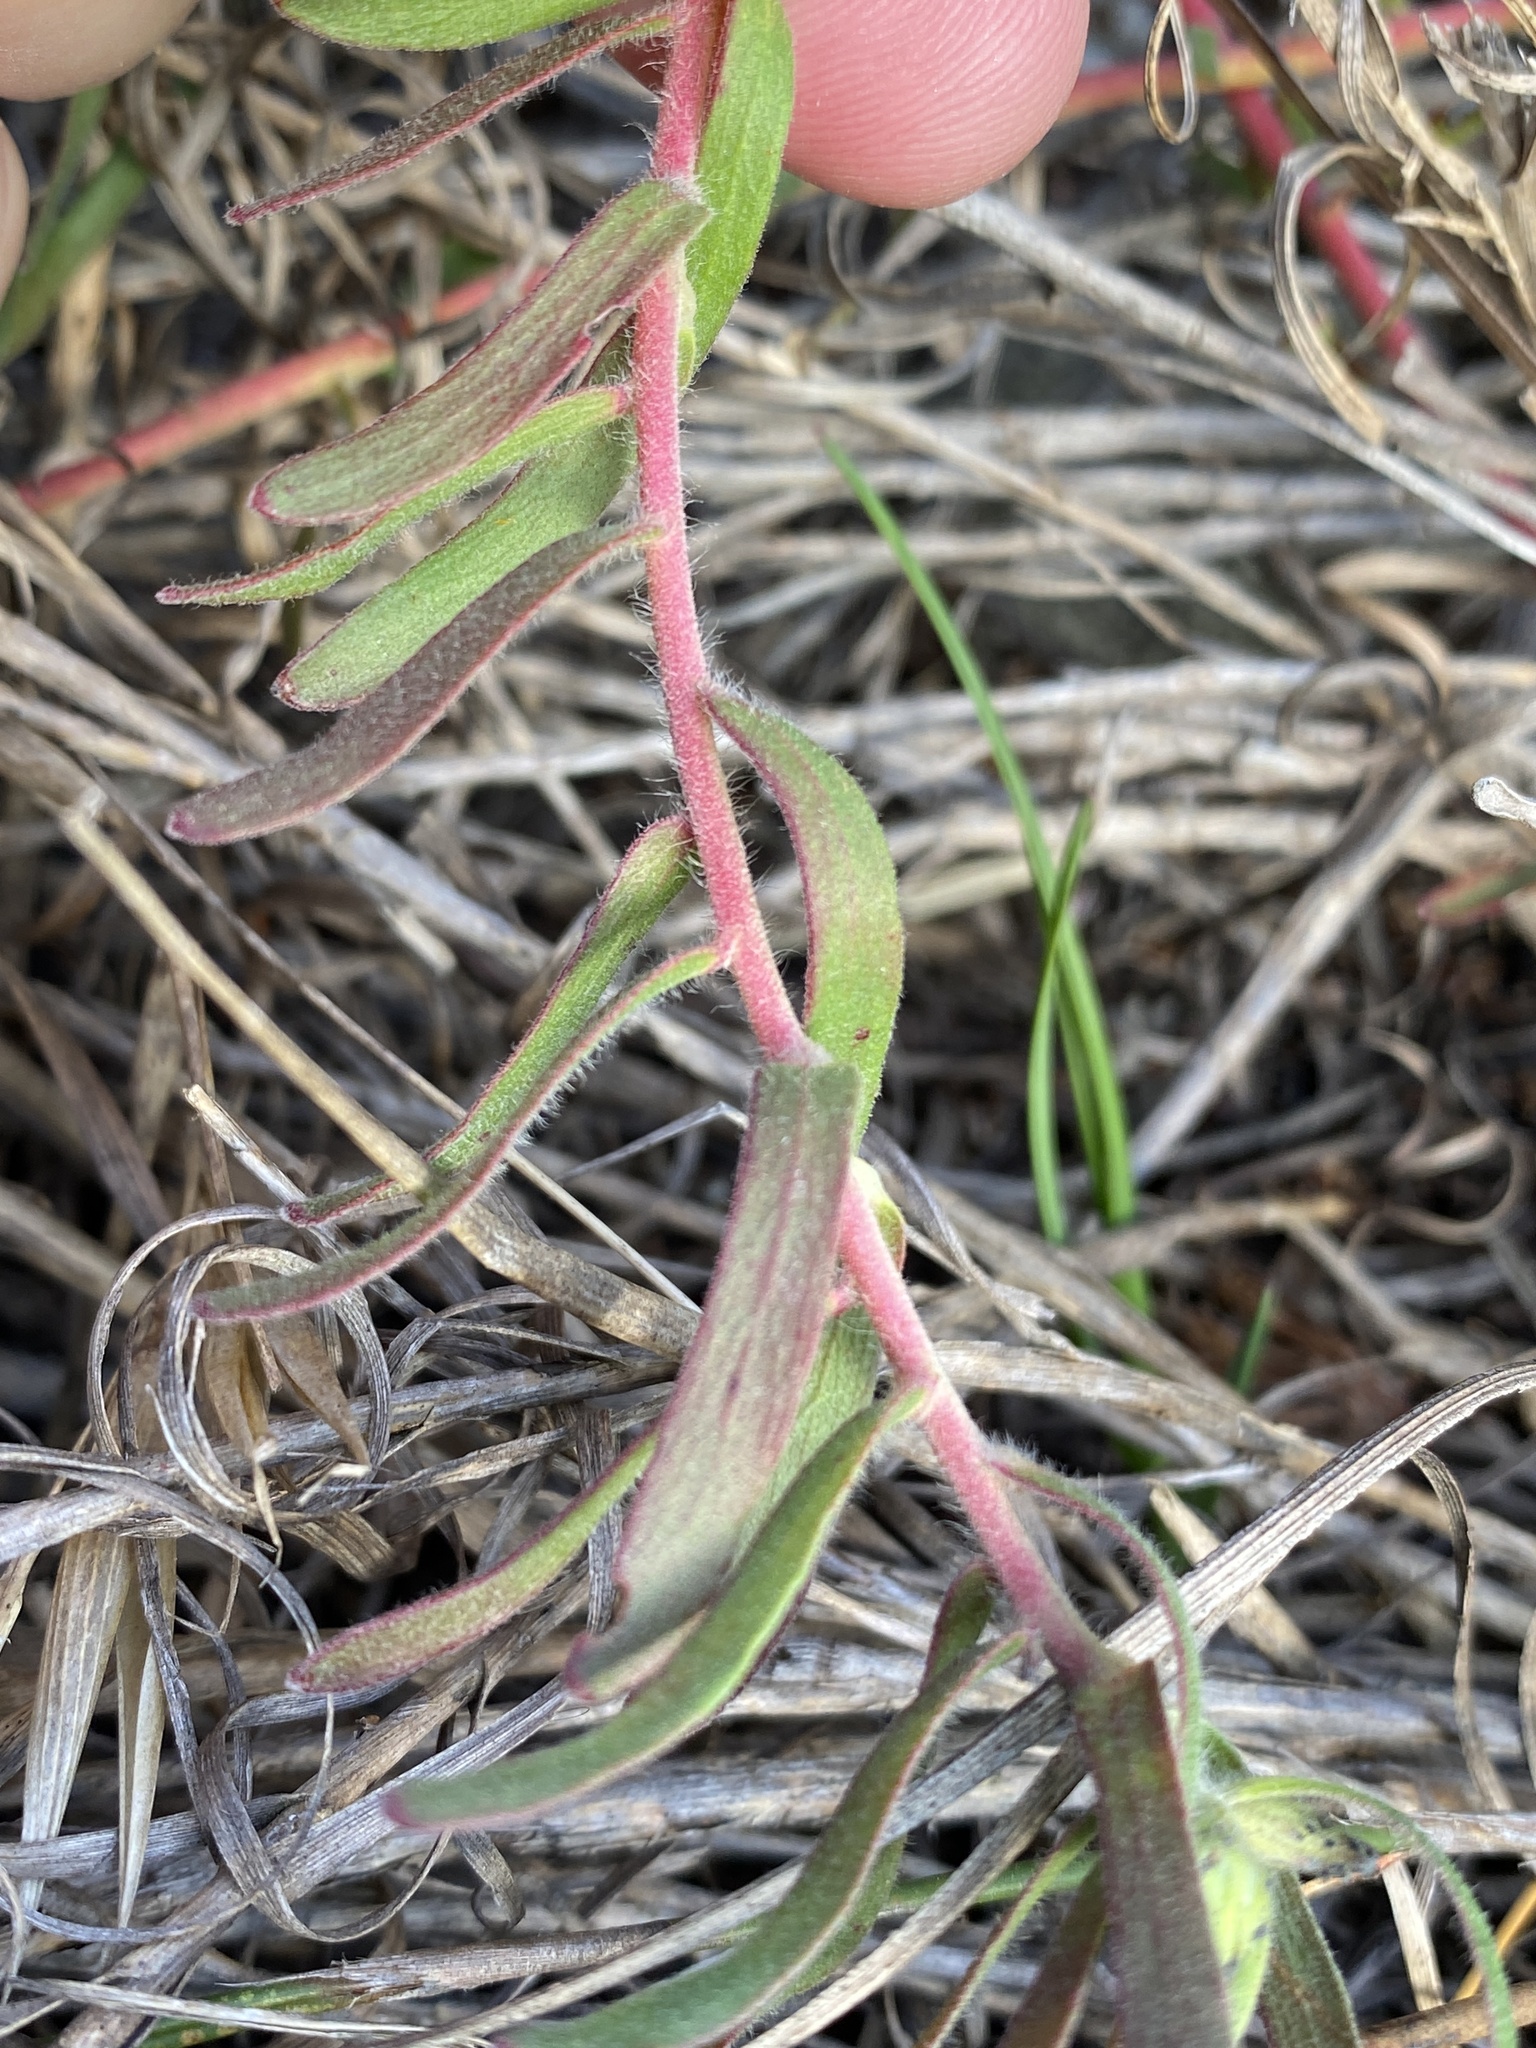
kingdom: Plantae
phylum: Tracheophyta
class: Magnoliopsida
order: Proteales
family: Proteaceae
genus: Leucospermum
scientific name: Leucospermum gracile
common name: Hermanus pincushion
